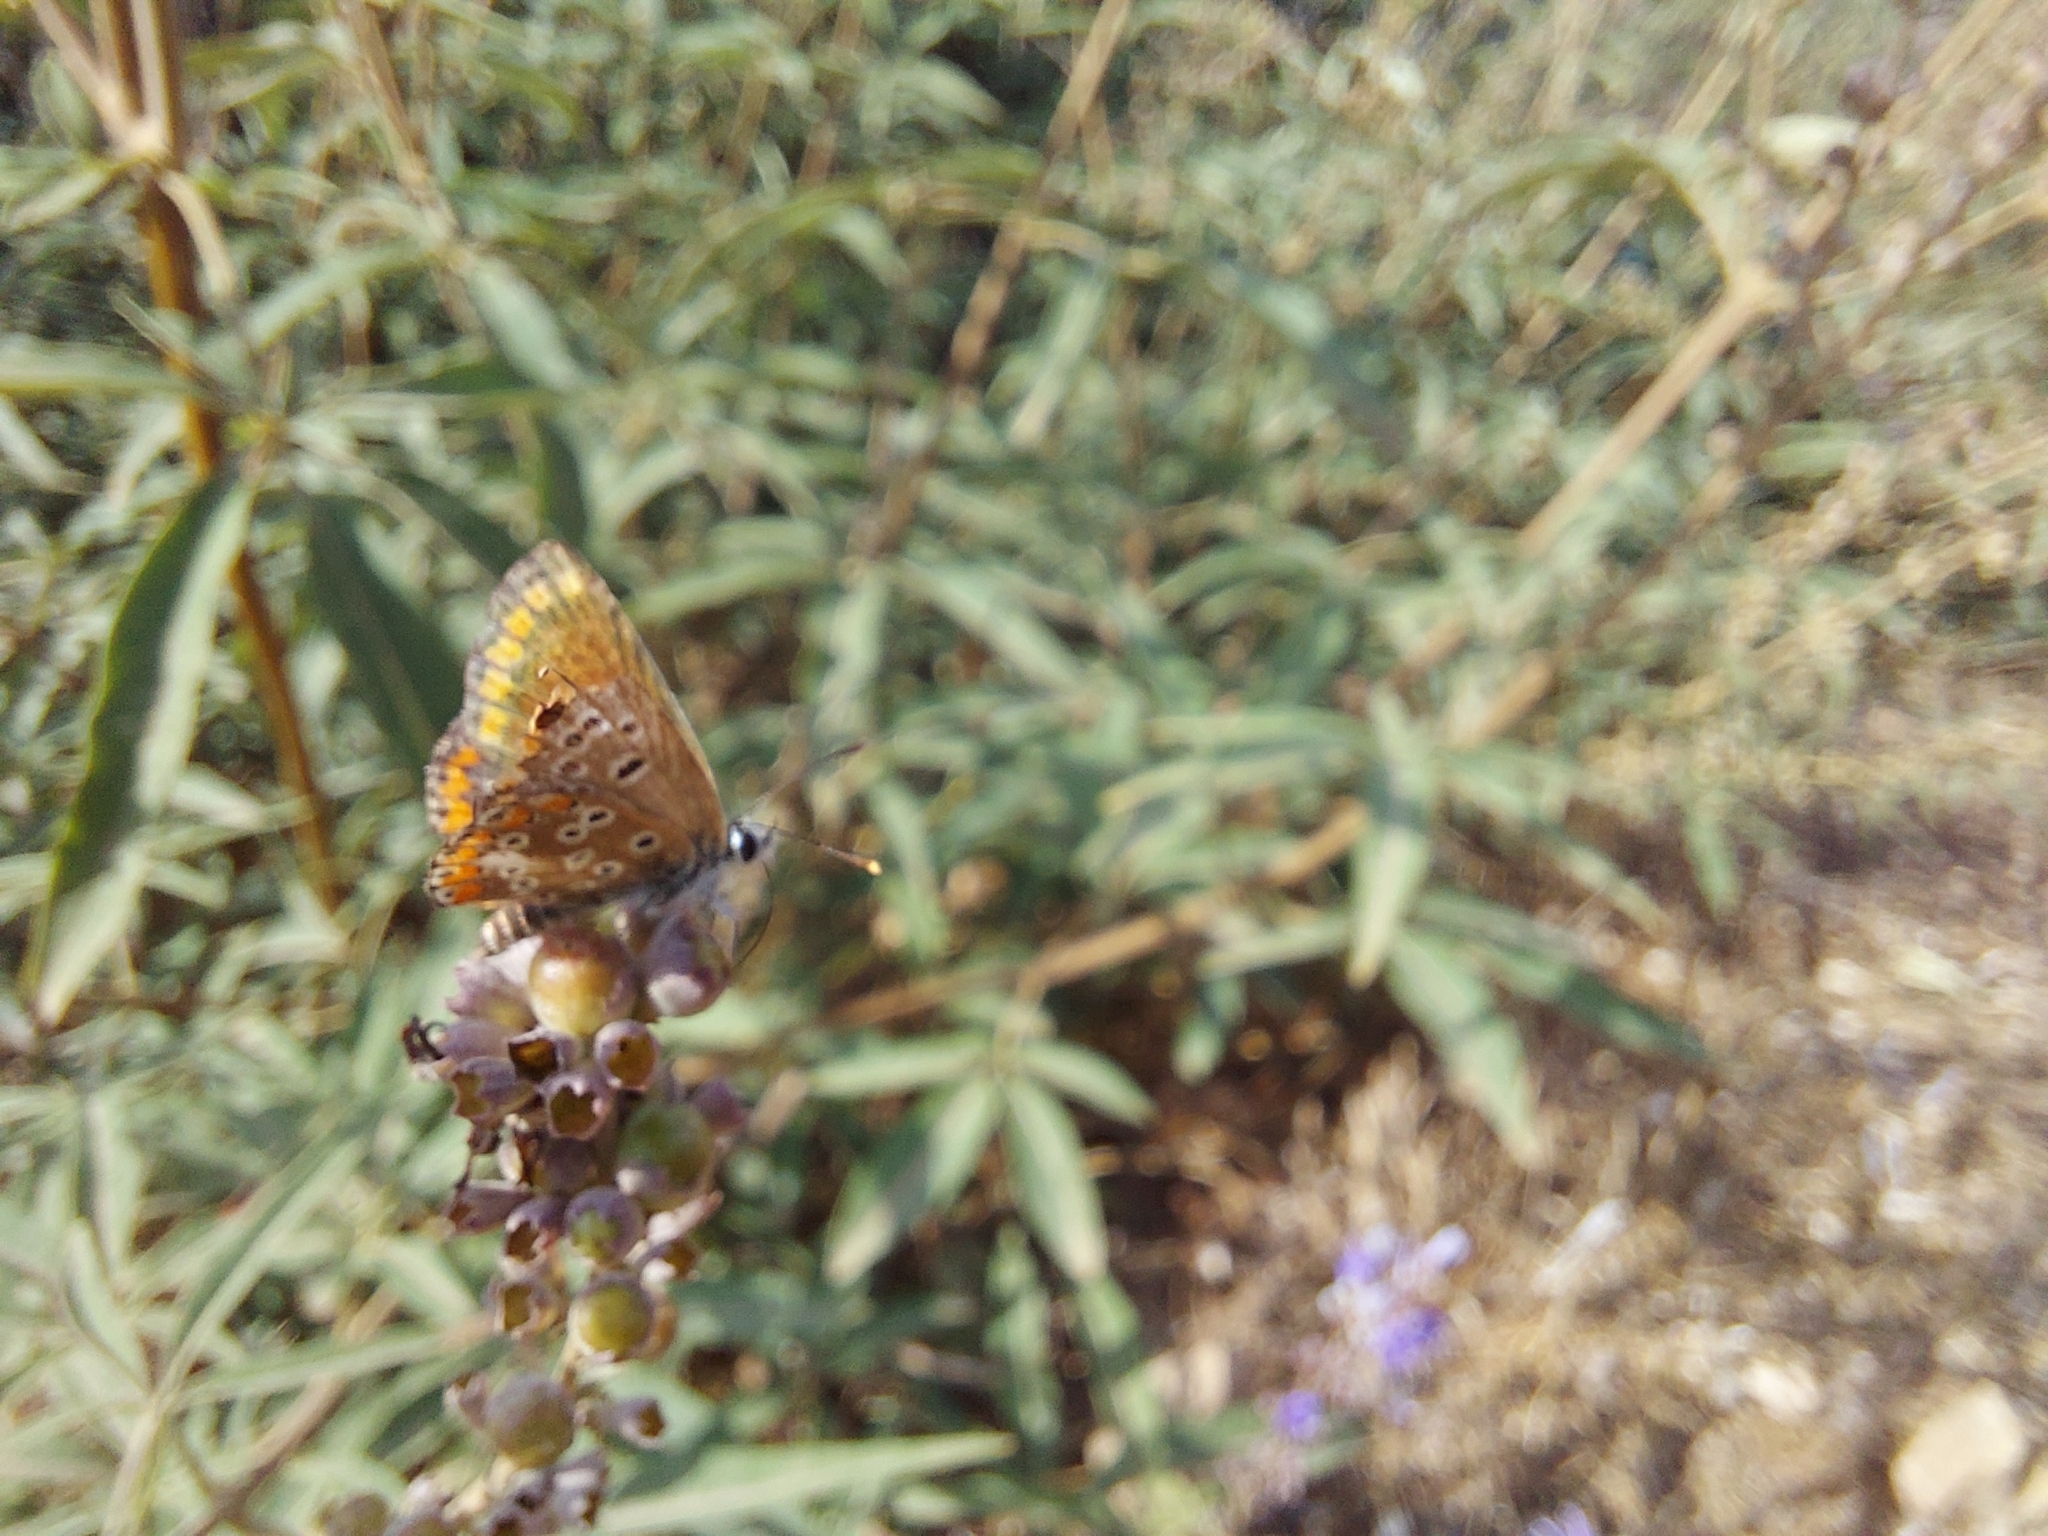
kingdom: Animalia
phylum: Arthropoda
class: Insecta
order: Lepidoptera
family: Lycaenidae
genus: Aricia
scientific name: Aricia cramera
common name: Eschscholtz´s brown  argus
